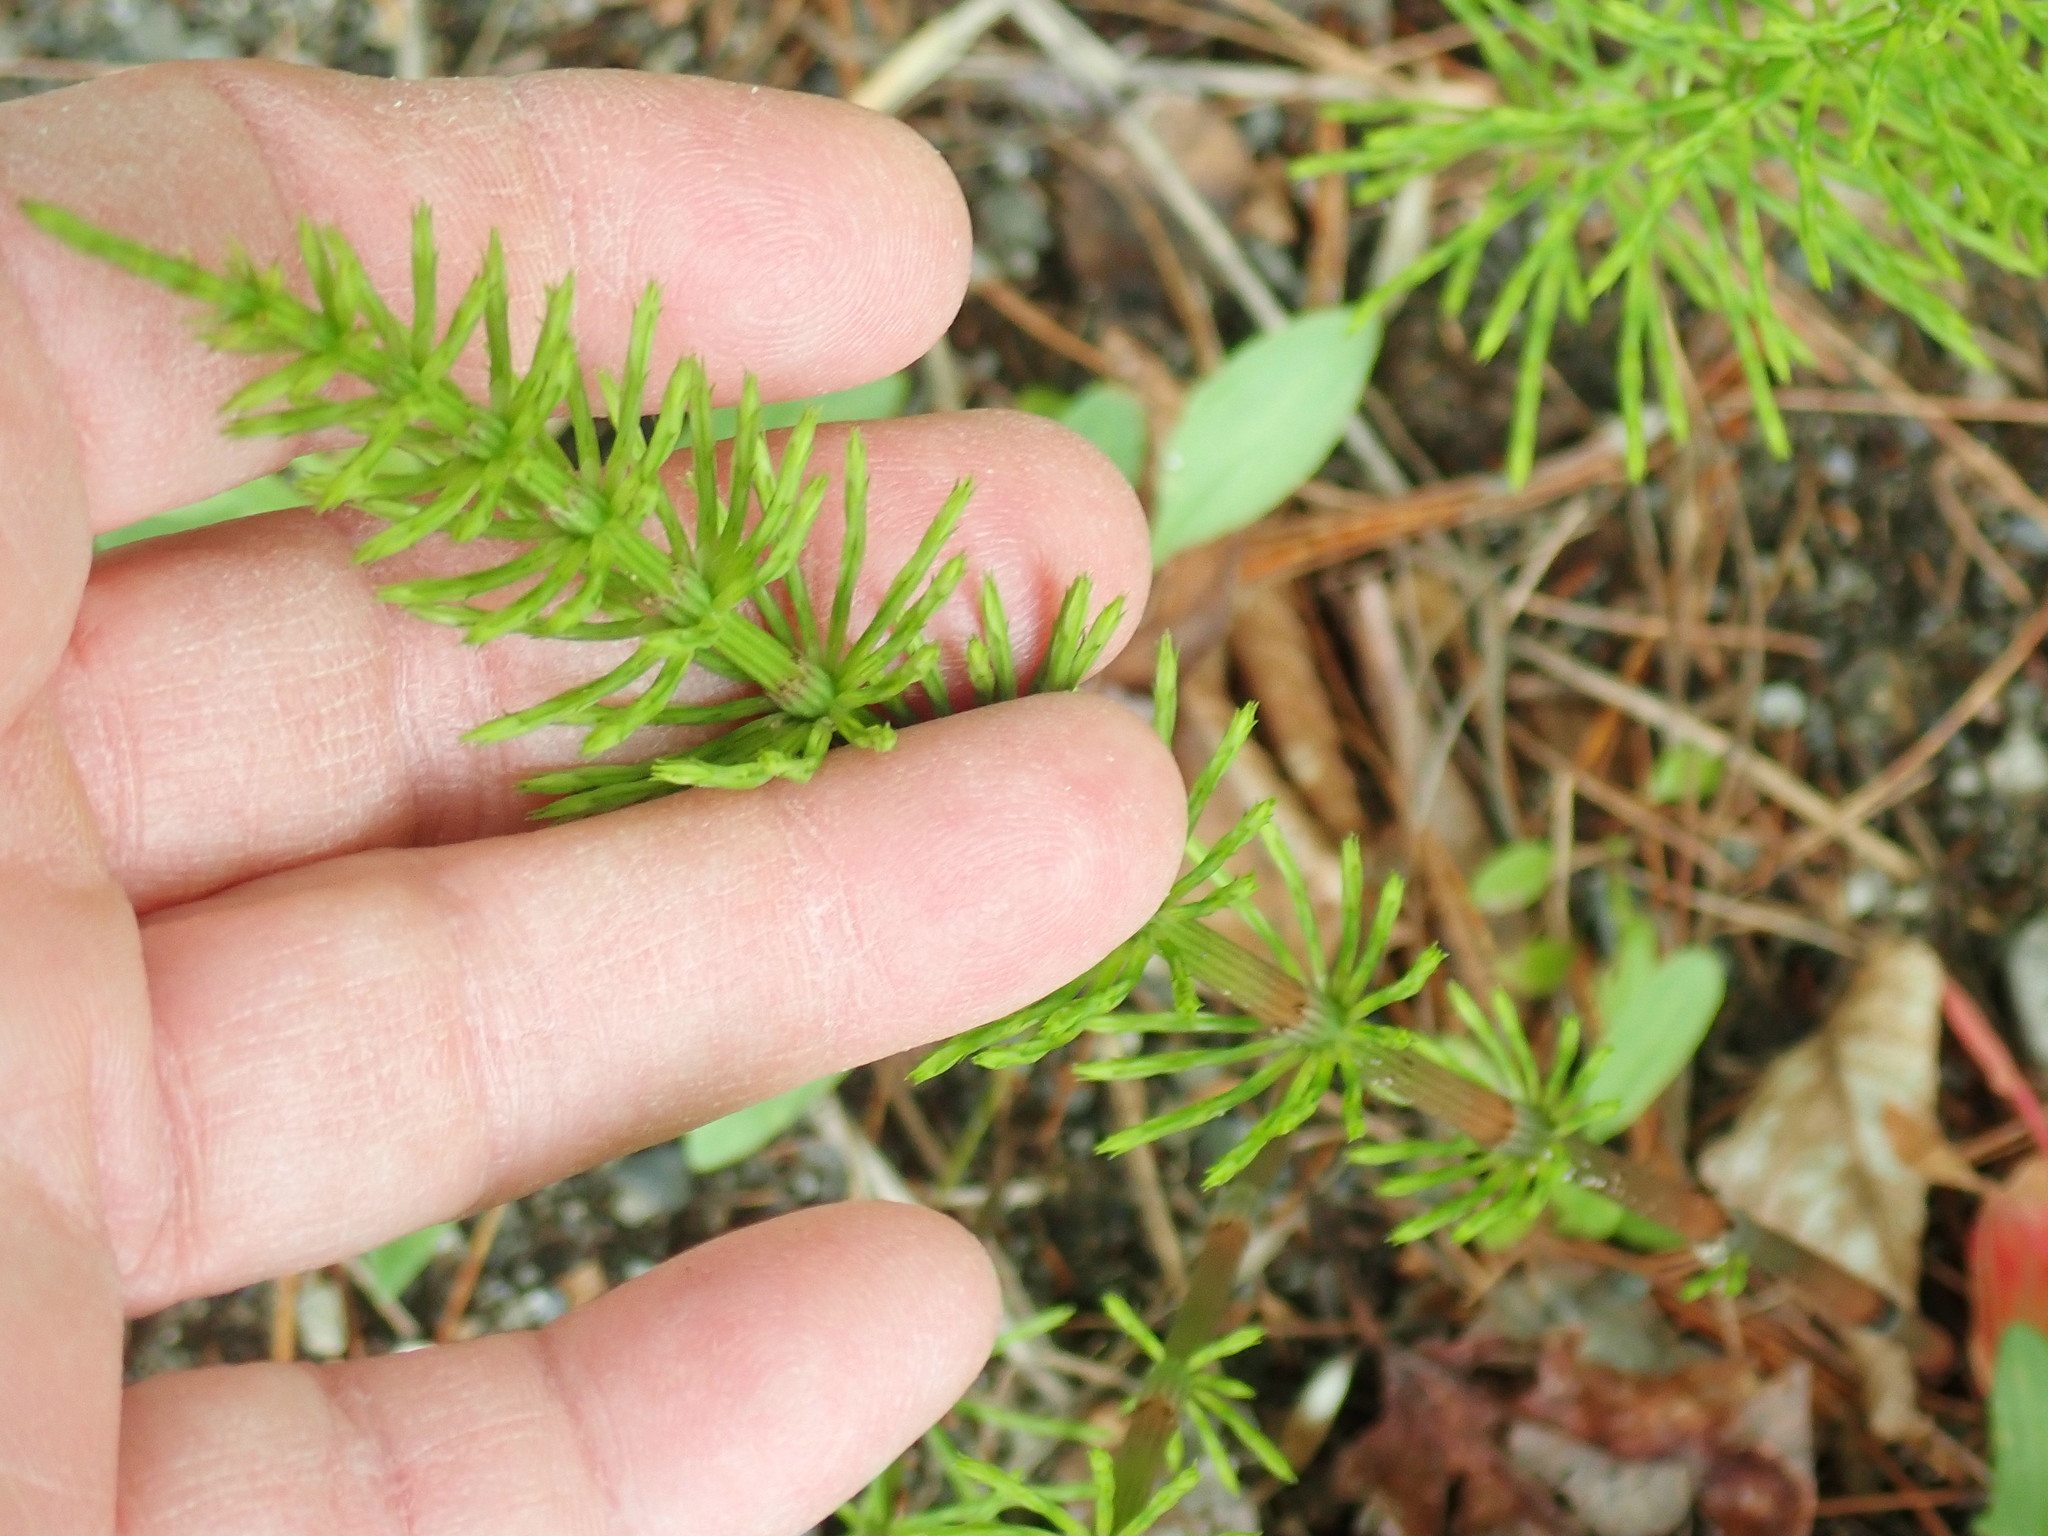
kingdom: Plantae
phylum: Tracheophyta
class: Polypodiopsida
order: Equisetales
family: Equisetaceae
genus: Equisetum
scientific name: Equisetum arvense
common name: Field horsetail
